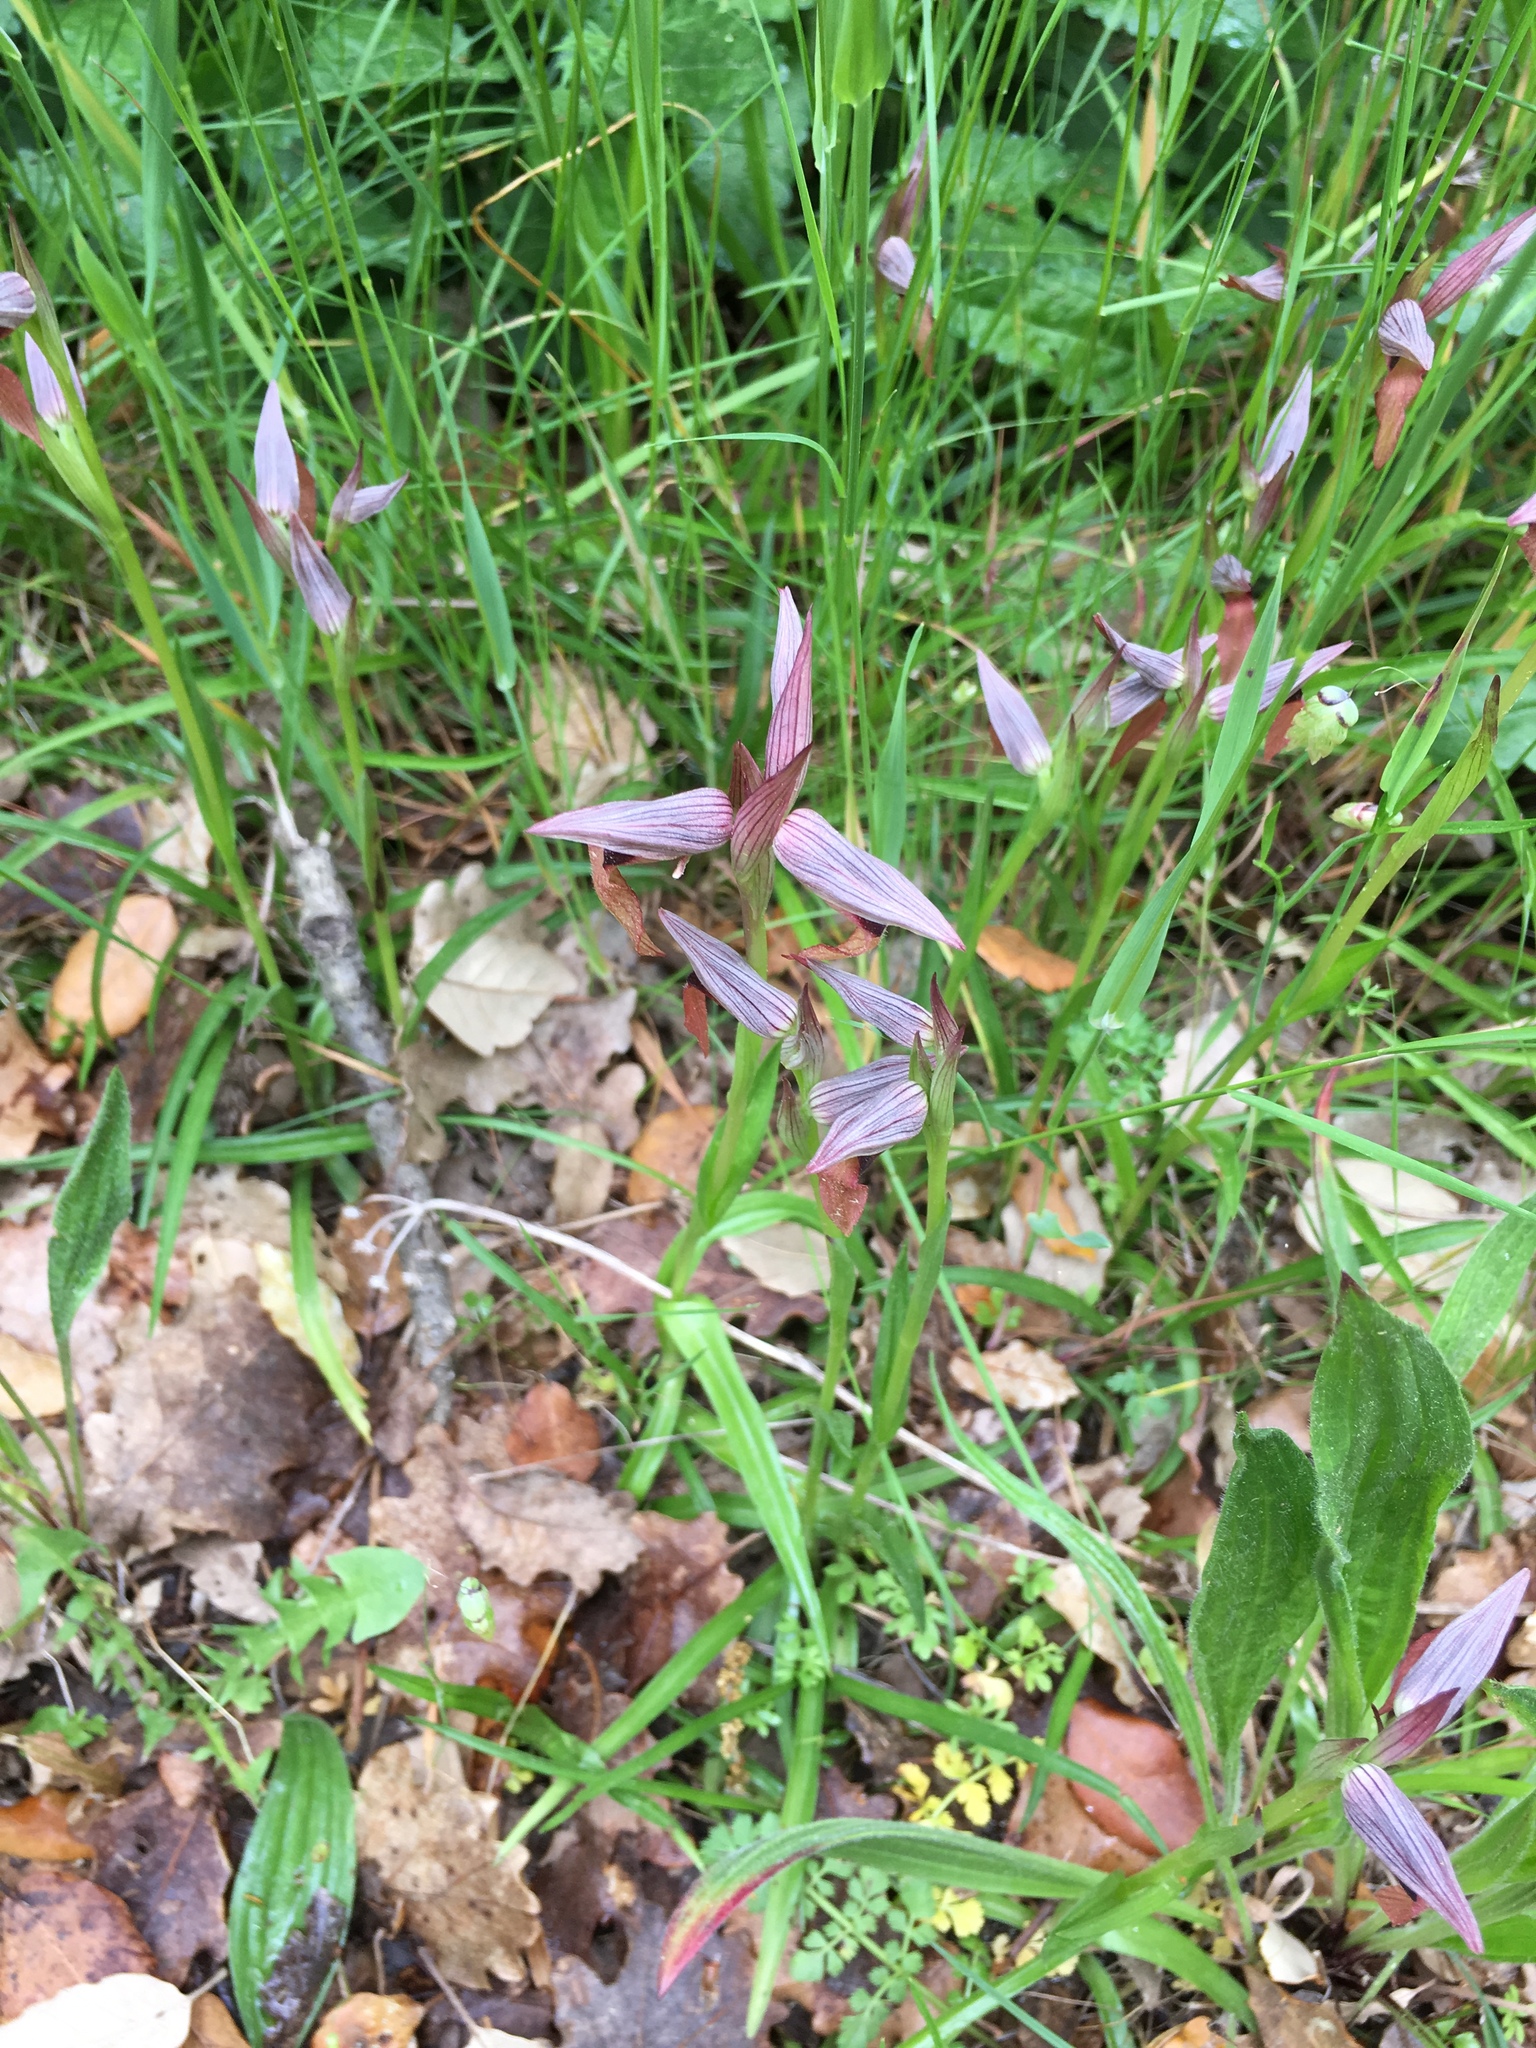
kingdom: Plantae
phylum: Tracheophyta
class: Liliopsida
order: Asparagales
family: Orchidaceae
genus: Serapias
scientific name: Serapias lingua
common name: Tongue-orchid
